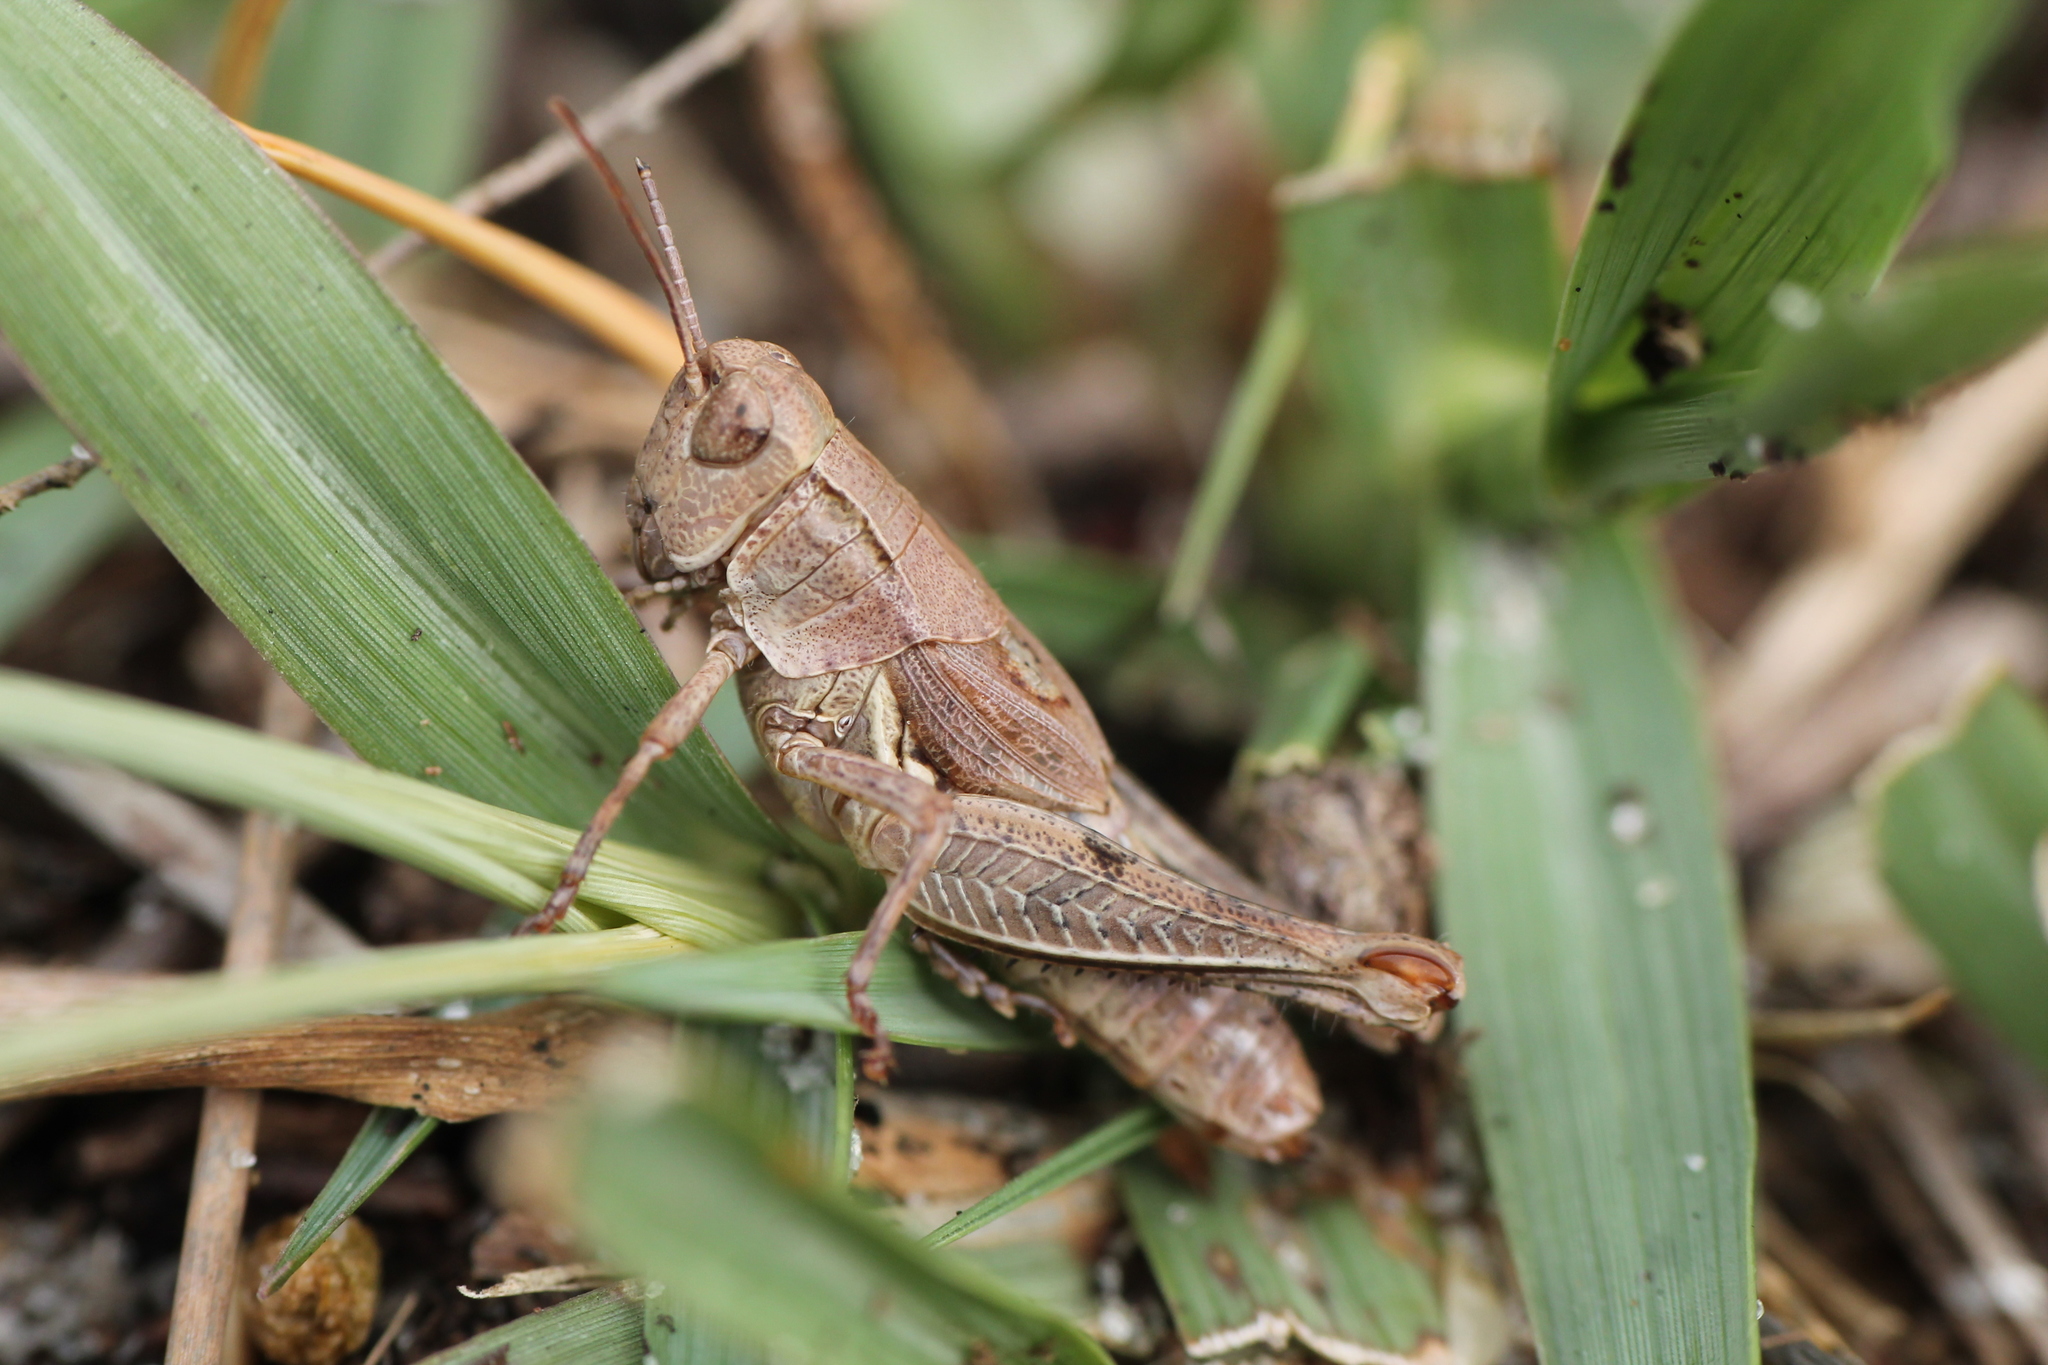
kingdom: Animalia
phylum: Arthropoda
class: Insecta
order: Orthoptera
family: Acrididae
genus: Phaulacridium
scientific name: Phaulacridium marginale
